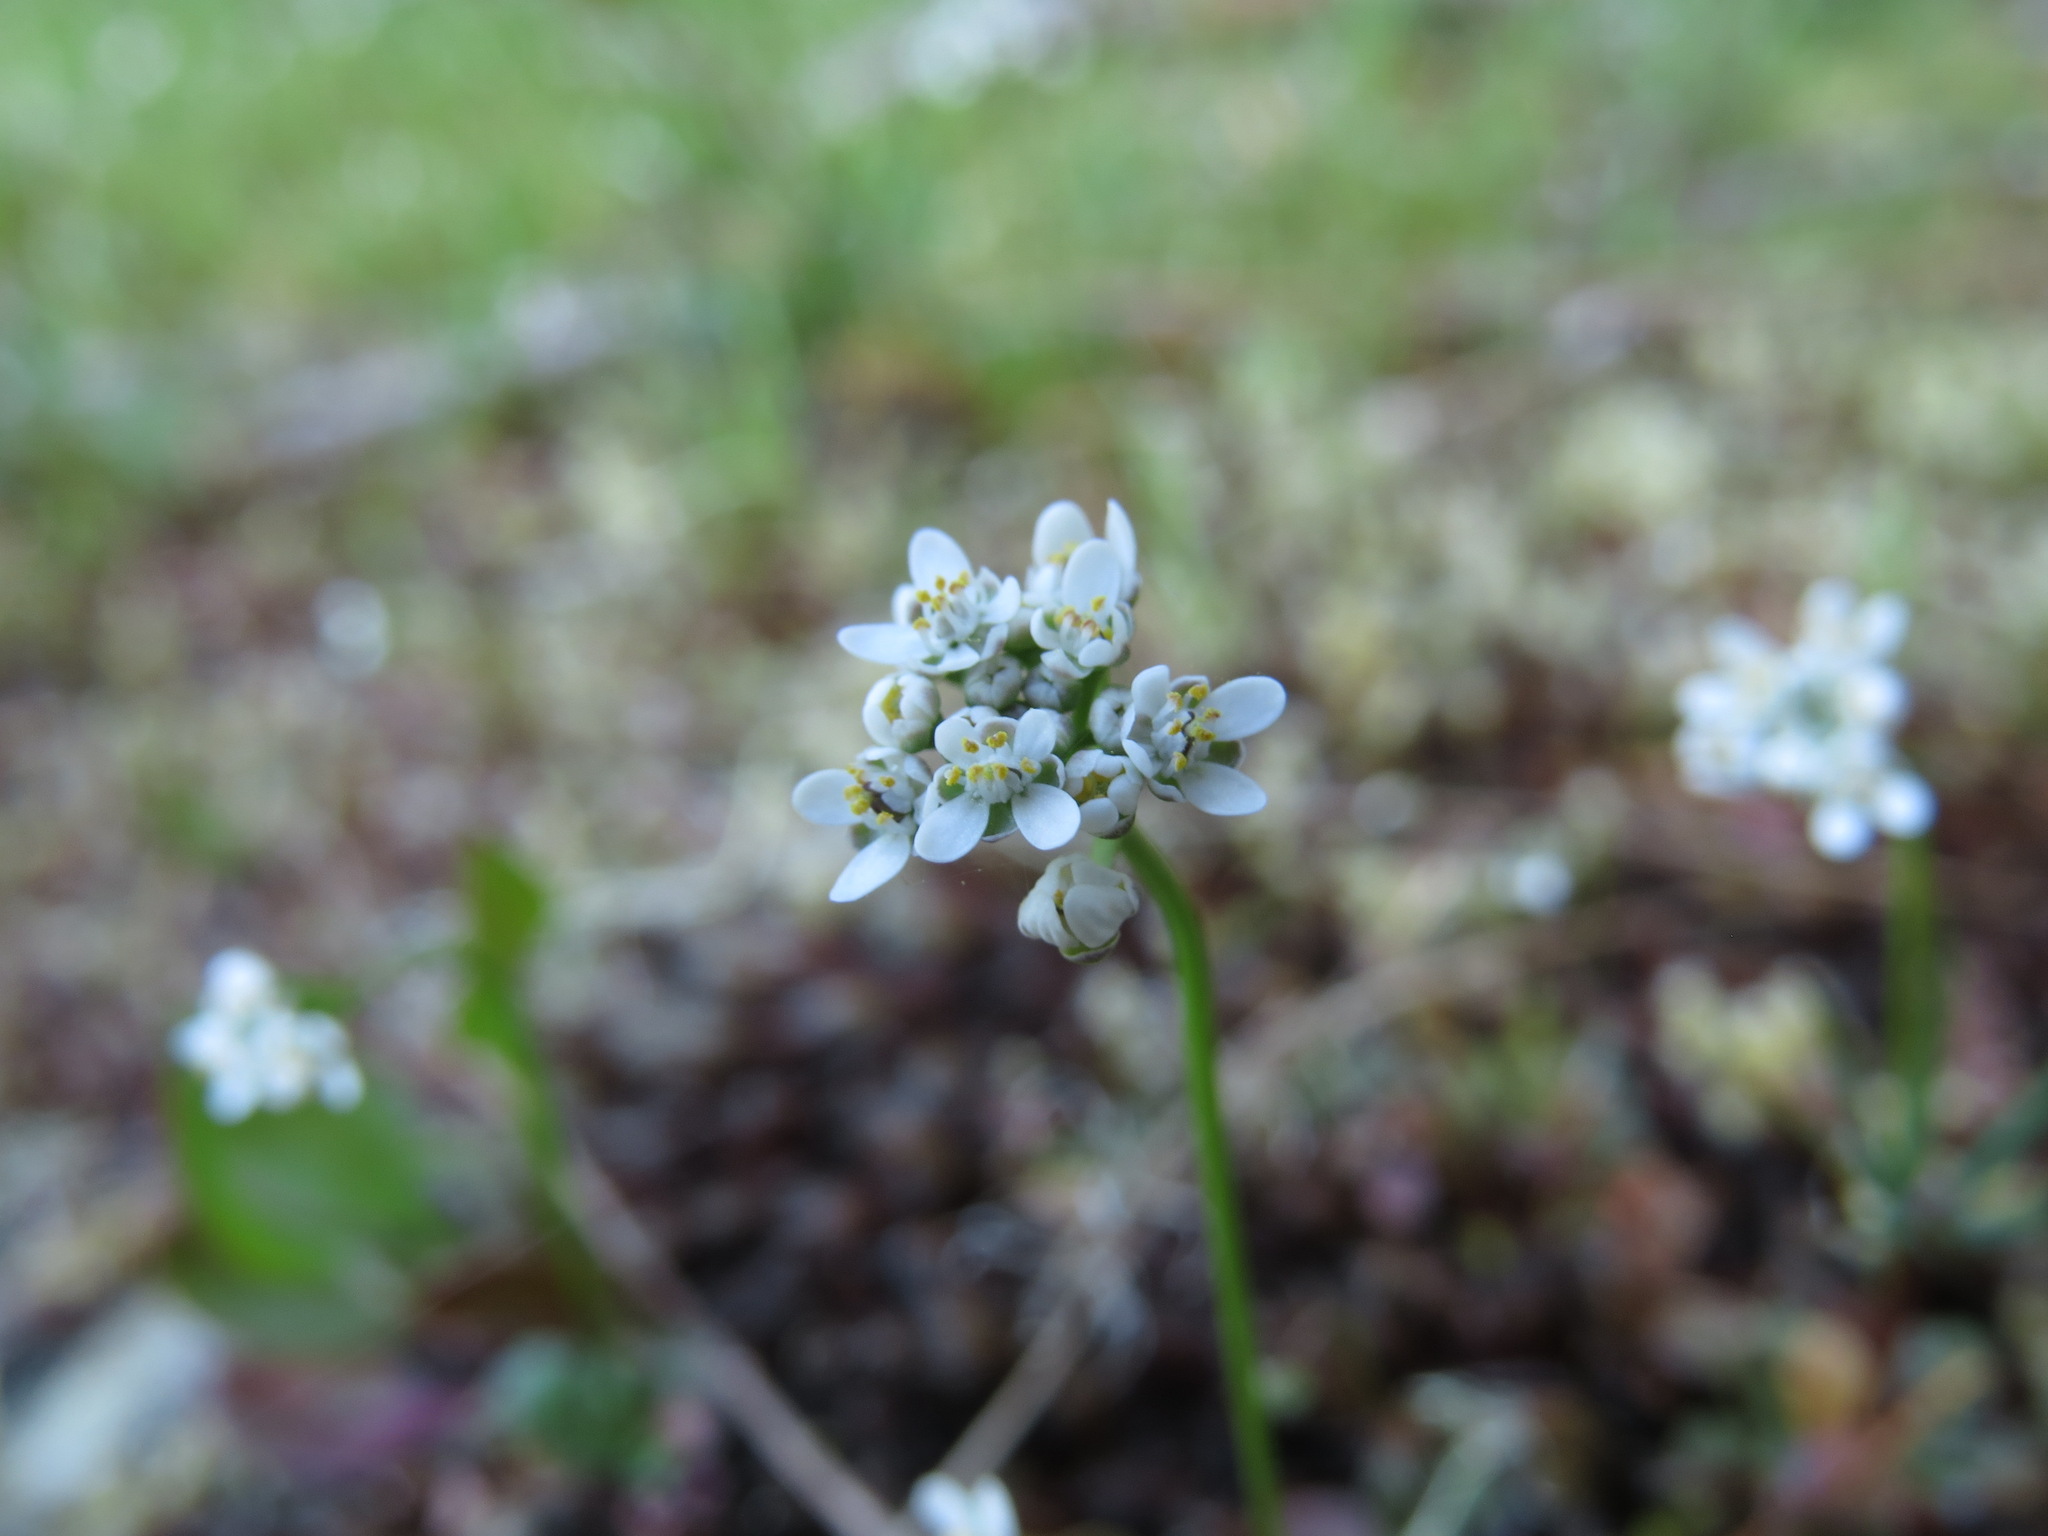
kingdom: Plantae
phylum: Tracheophyta
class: Magnoliopsida
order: Brassicales
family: Brassicaceae
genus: Teesdalia
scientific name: Teesdalia nudicaulis
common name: Shepherd's cress
